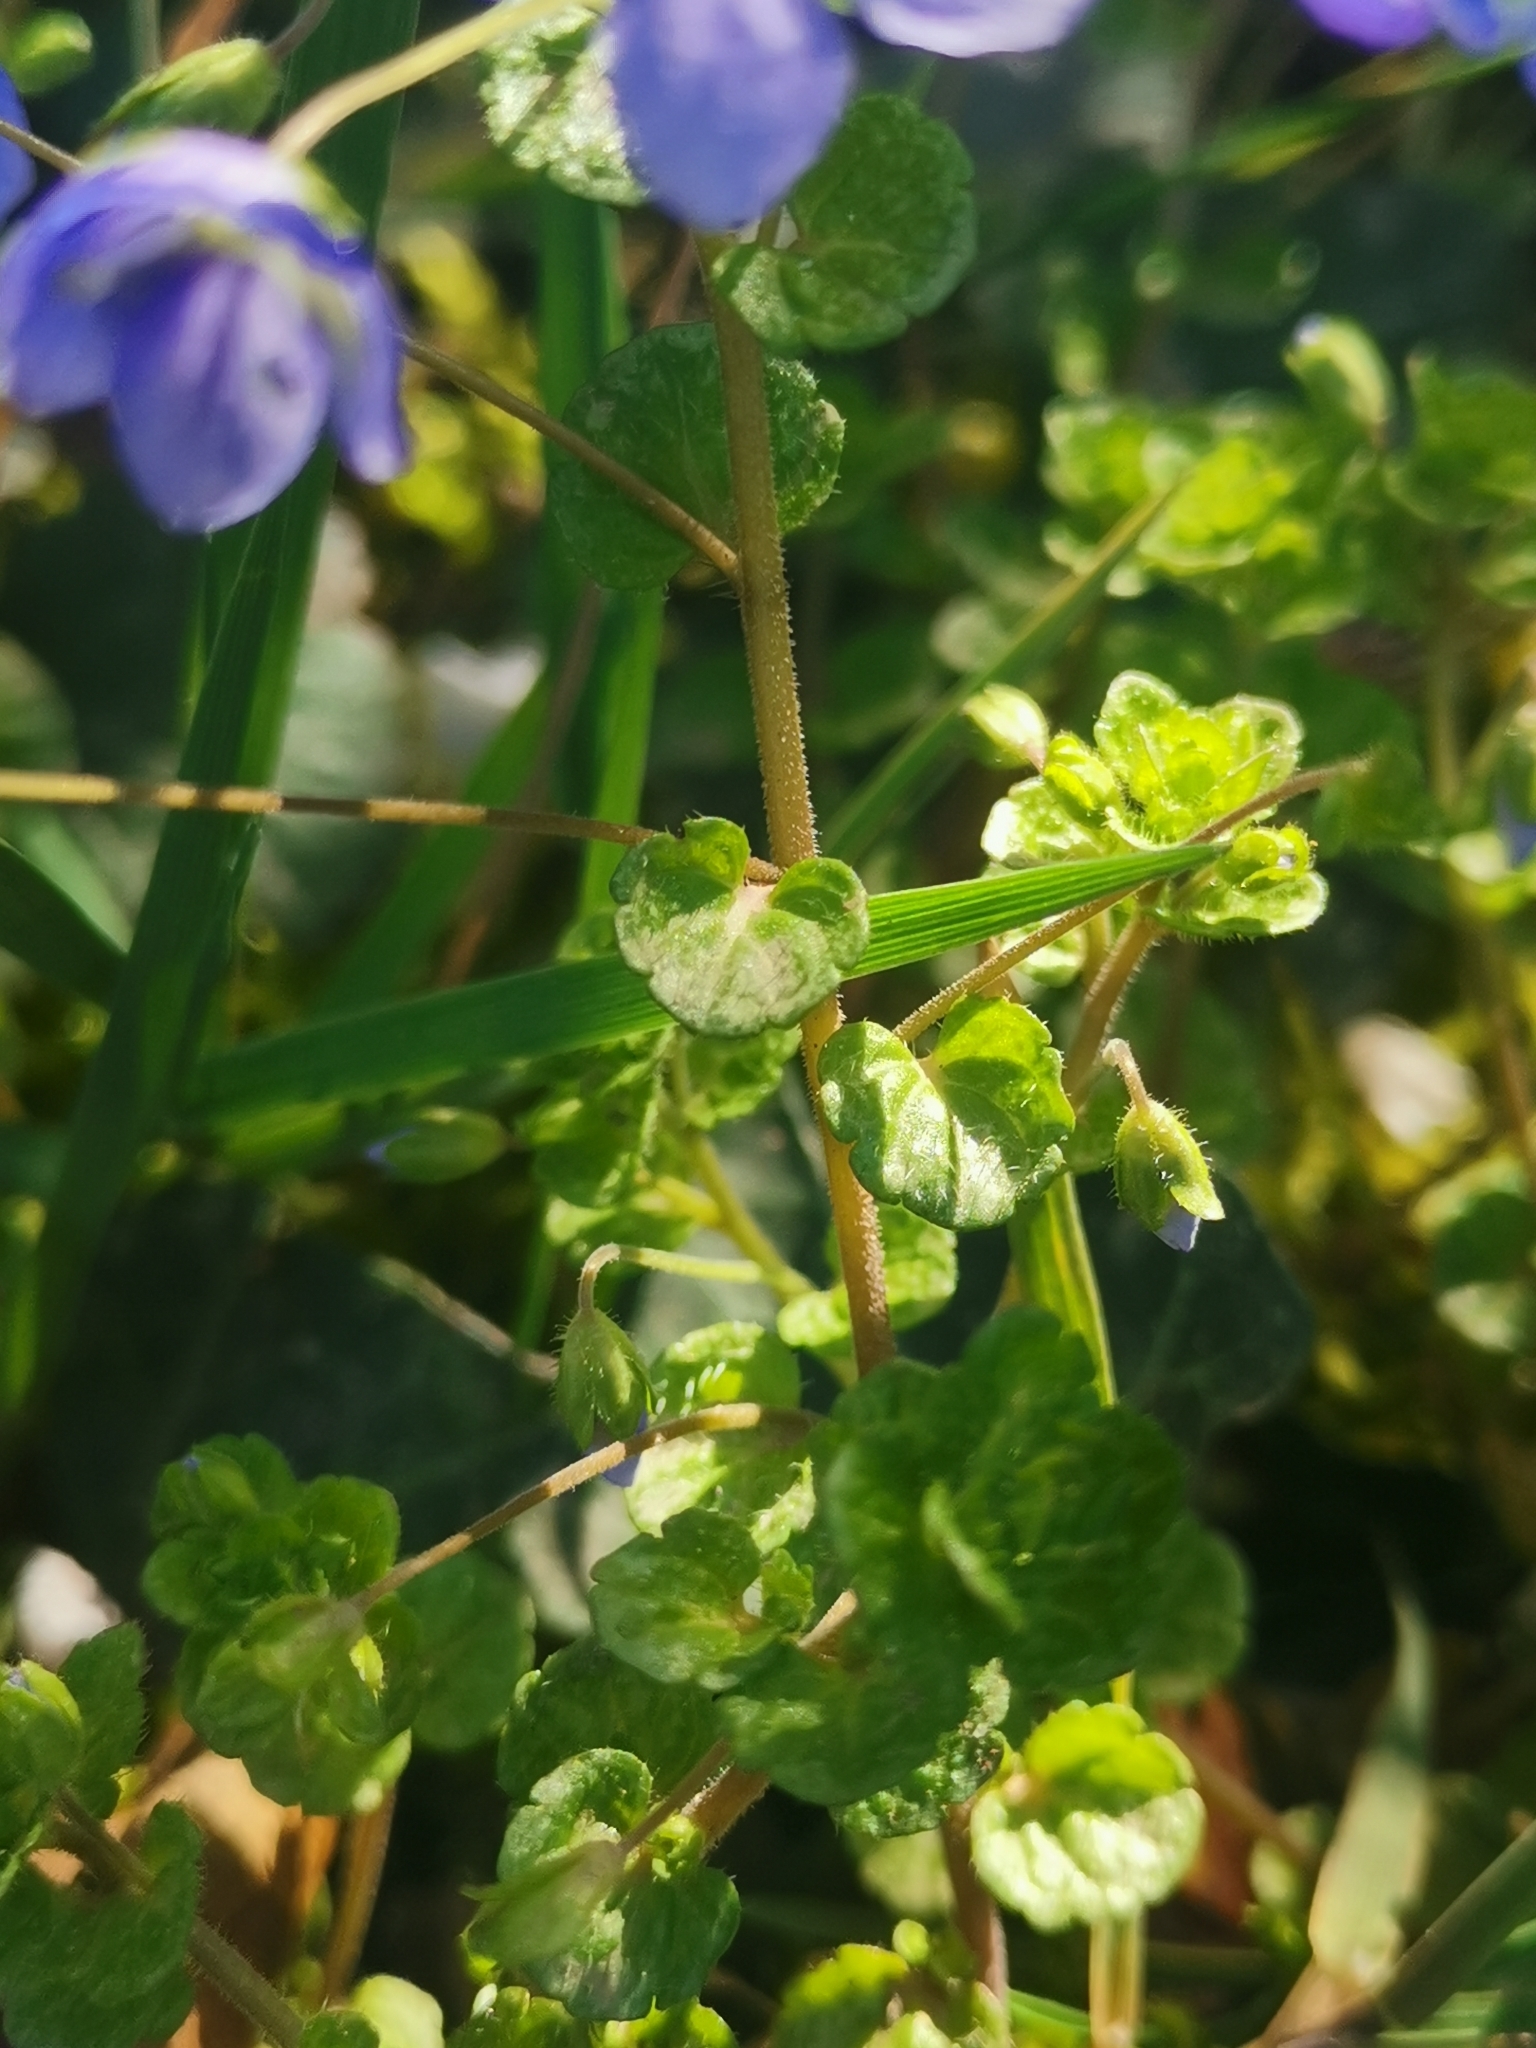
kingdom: Plantae
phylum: Tracheophyta
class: Magnoliopsida
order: Lamiales
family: Plantaginaceae
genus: Veronica
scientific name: Veronica filiformis
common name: Slender speedwell
